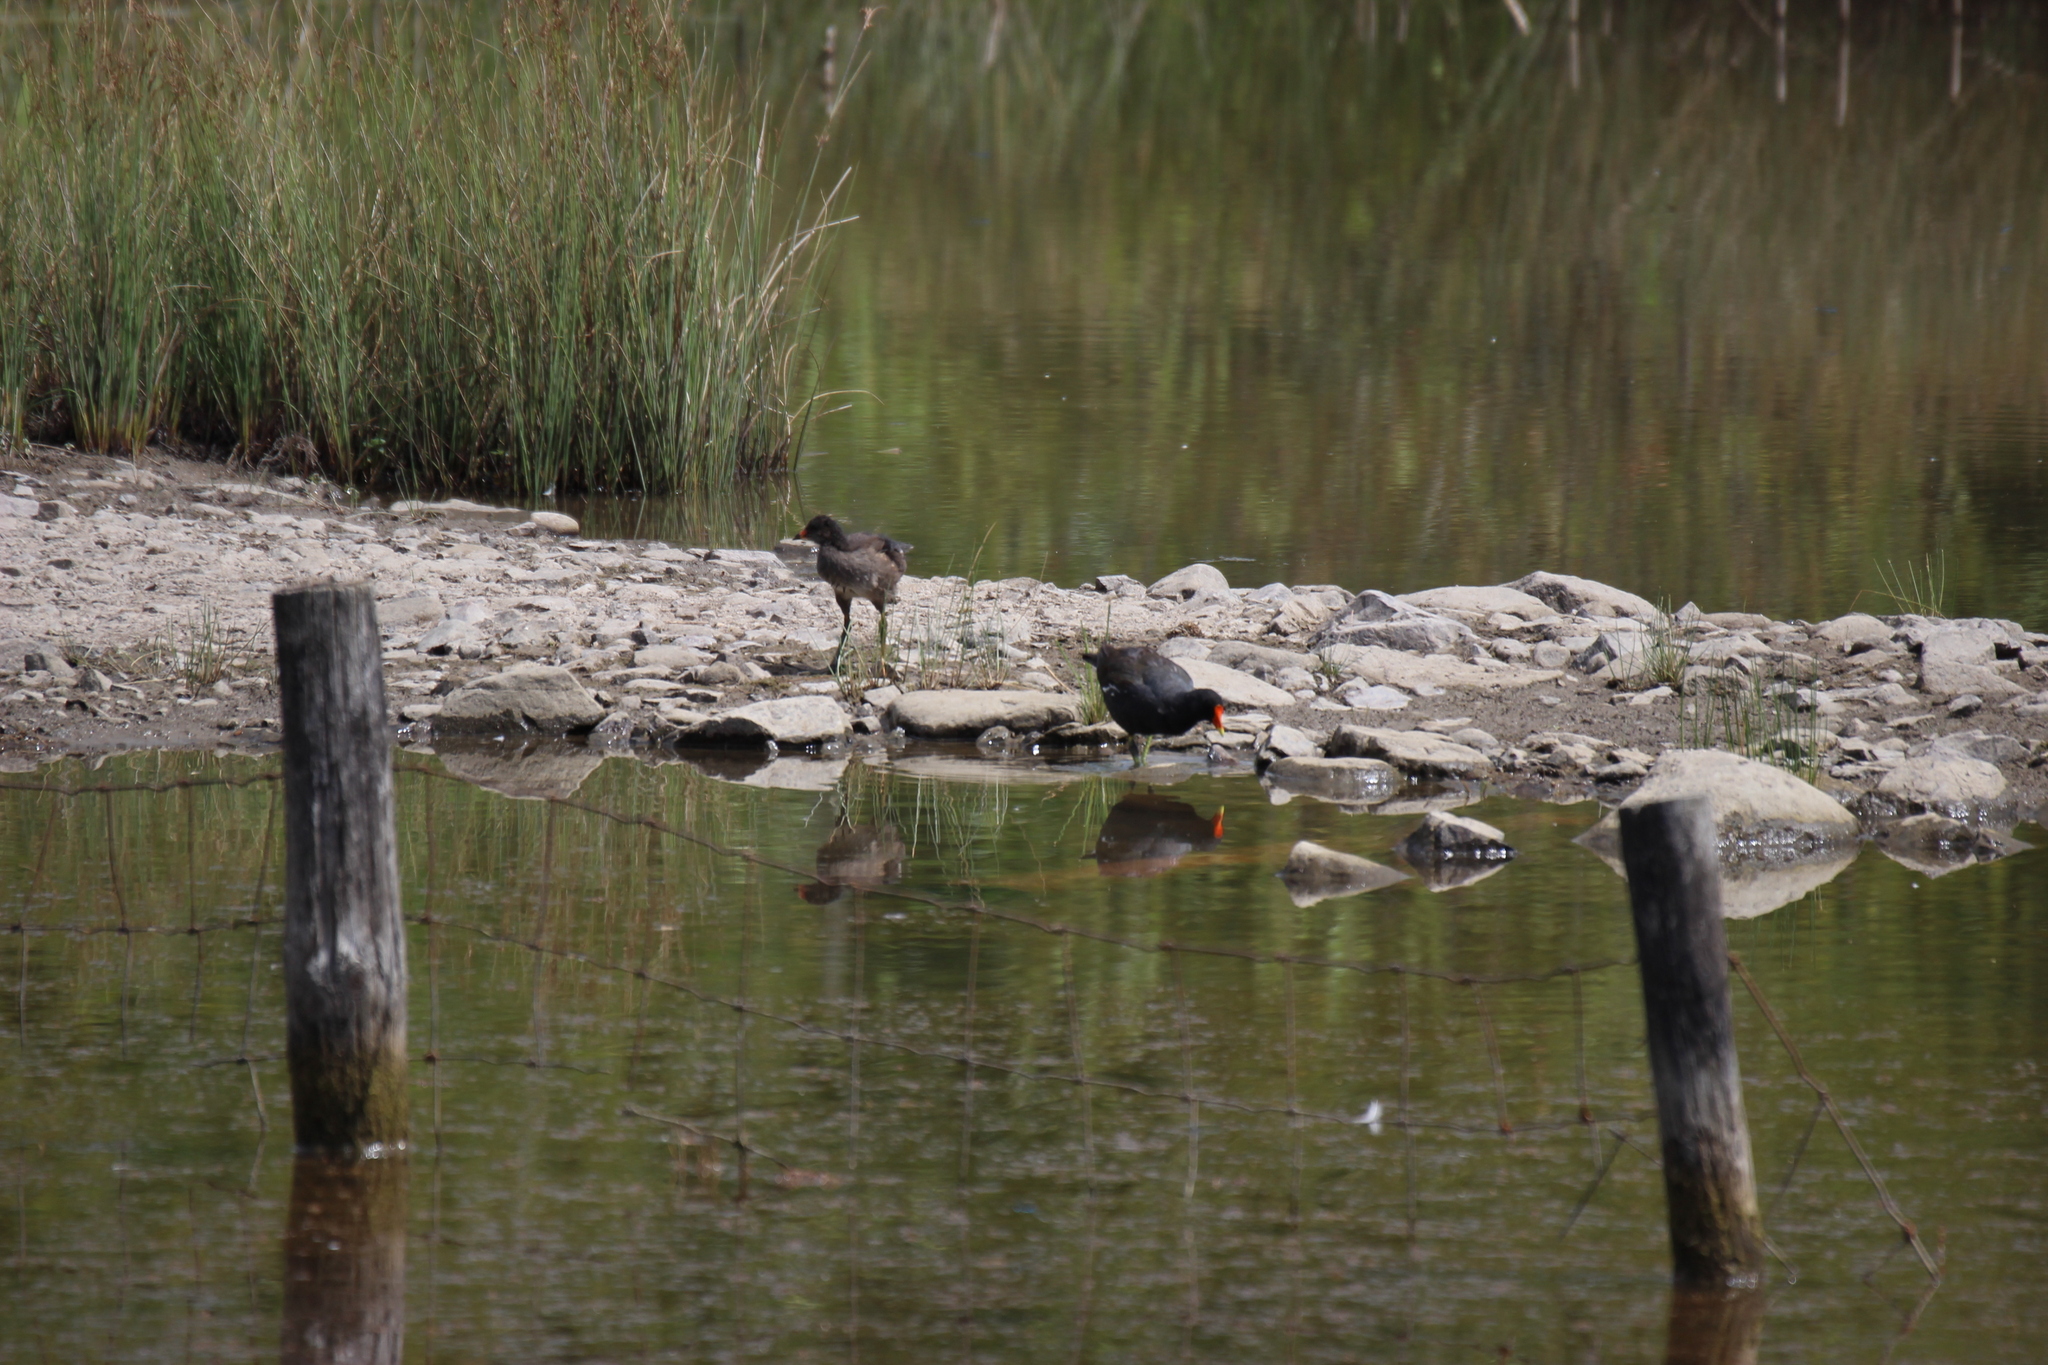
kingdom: Animalia
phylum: Chordata
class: Aves
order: Gruiformes
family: Rallidae
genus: Gallinula
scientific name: Gallinula chloropus
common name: Common moorhen
